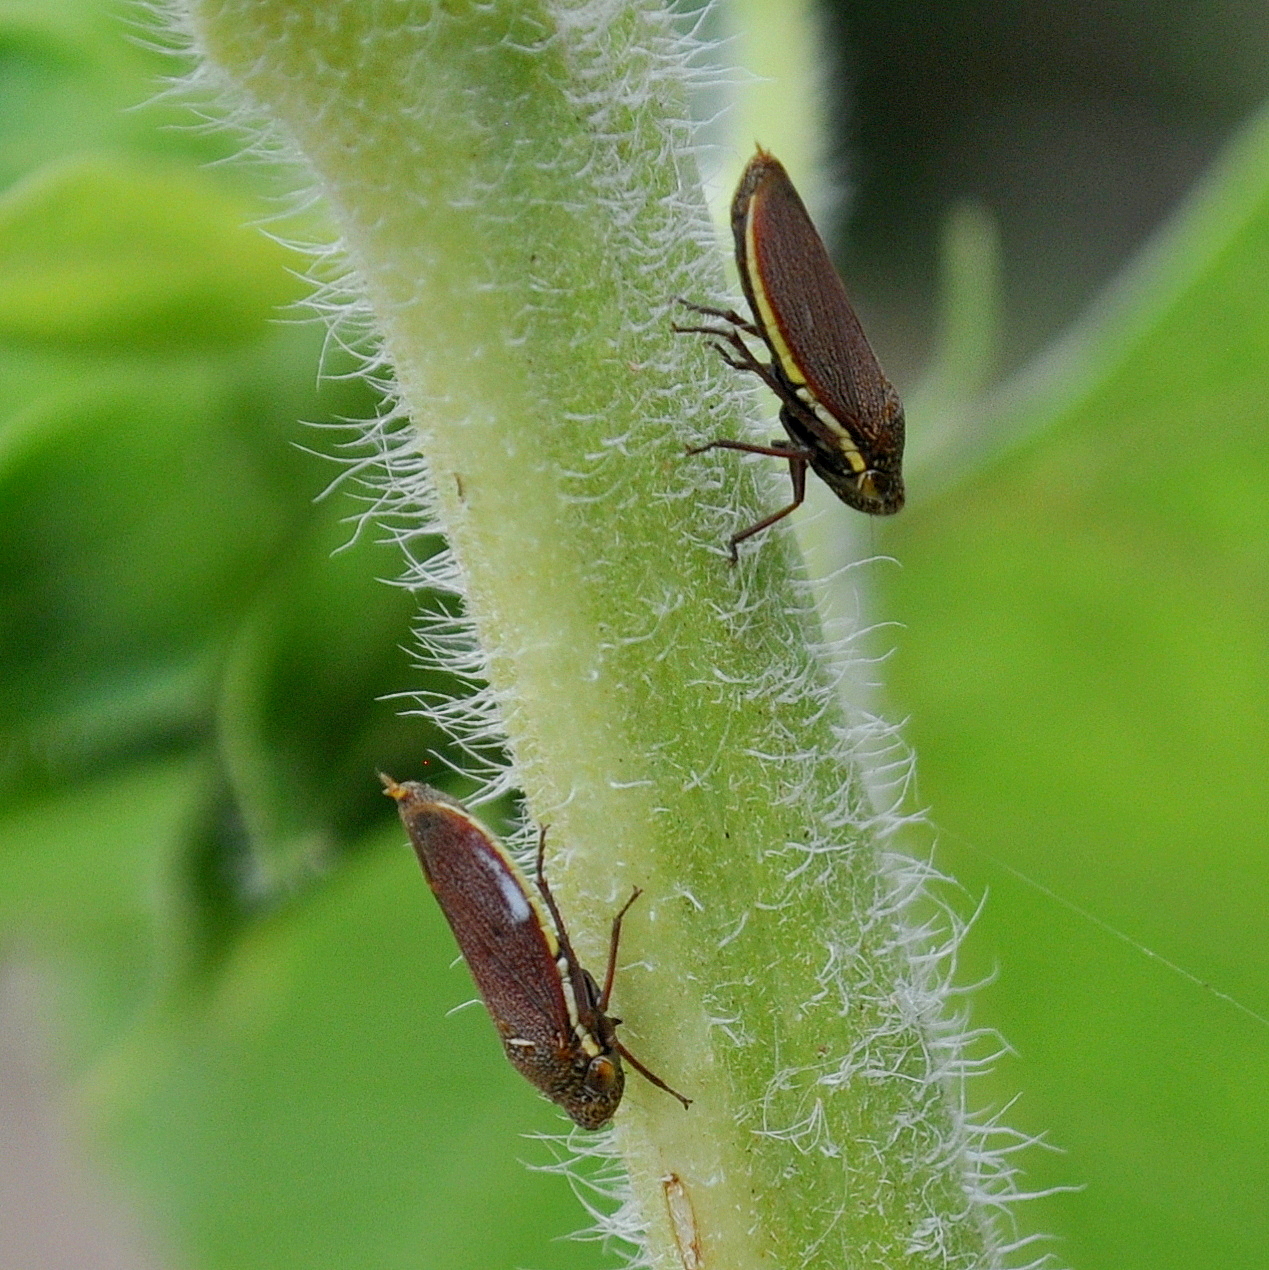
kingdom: Animalia
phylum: Arthropoda
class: Insecta
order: Hemiptera
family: Cicadellidae
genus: Tapajosa
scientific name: Tapajosa rubromarginata
